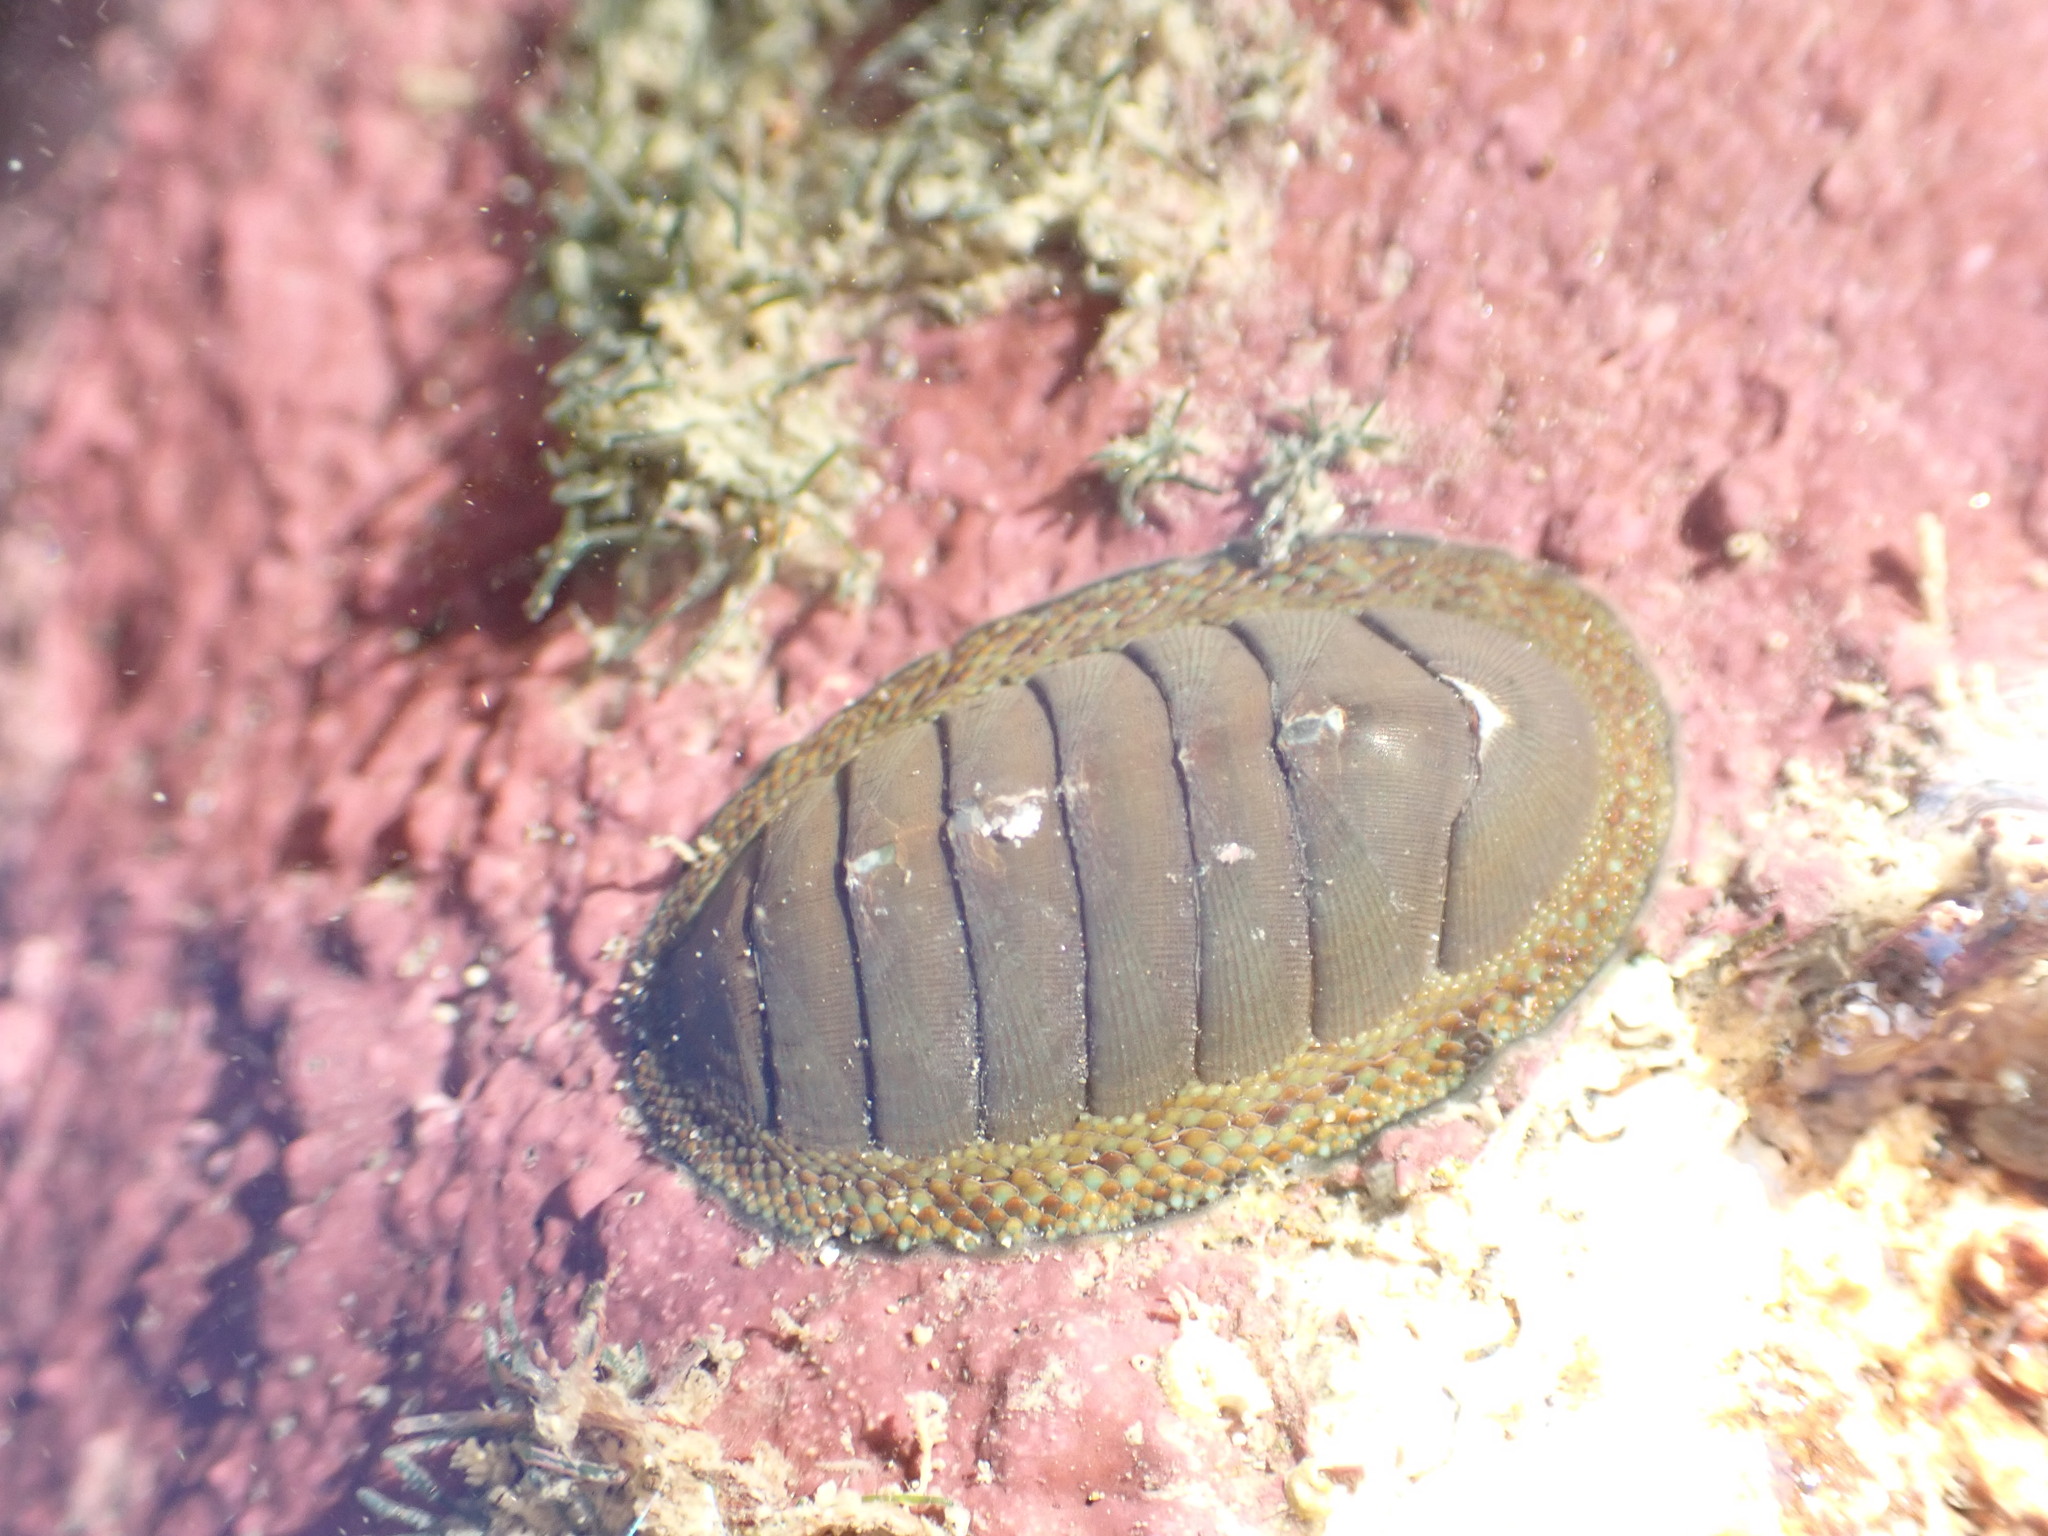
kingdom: Animalia
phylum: Mollusca
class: Polyplacophora
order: Chitonida
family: Chitonidae
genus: Chiton
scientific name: Chiton glaucus
